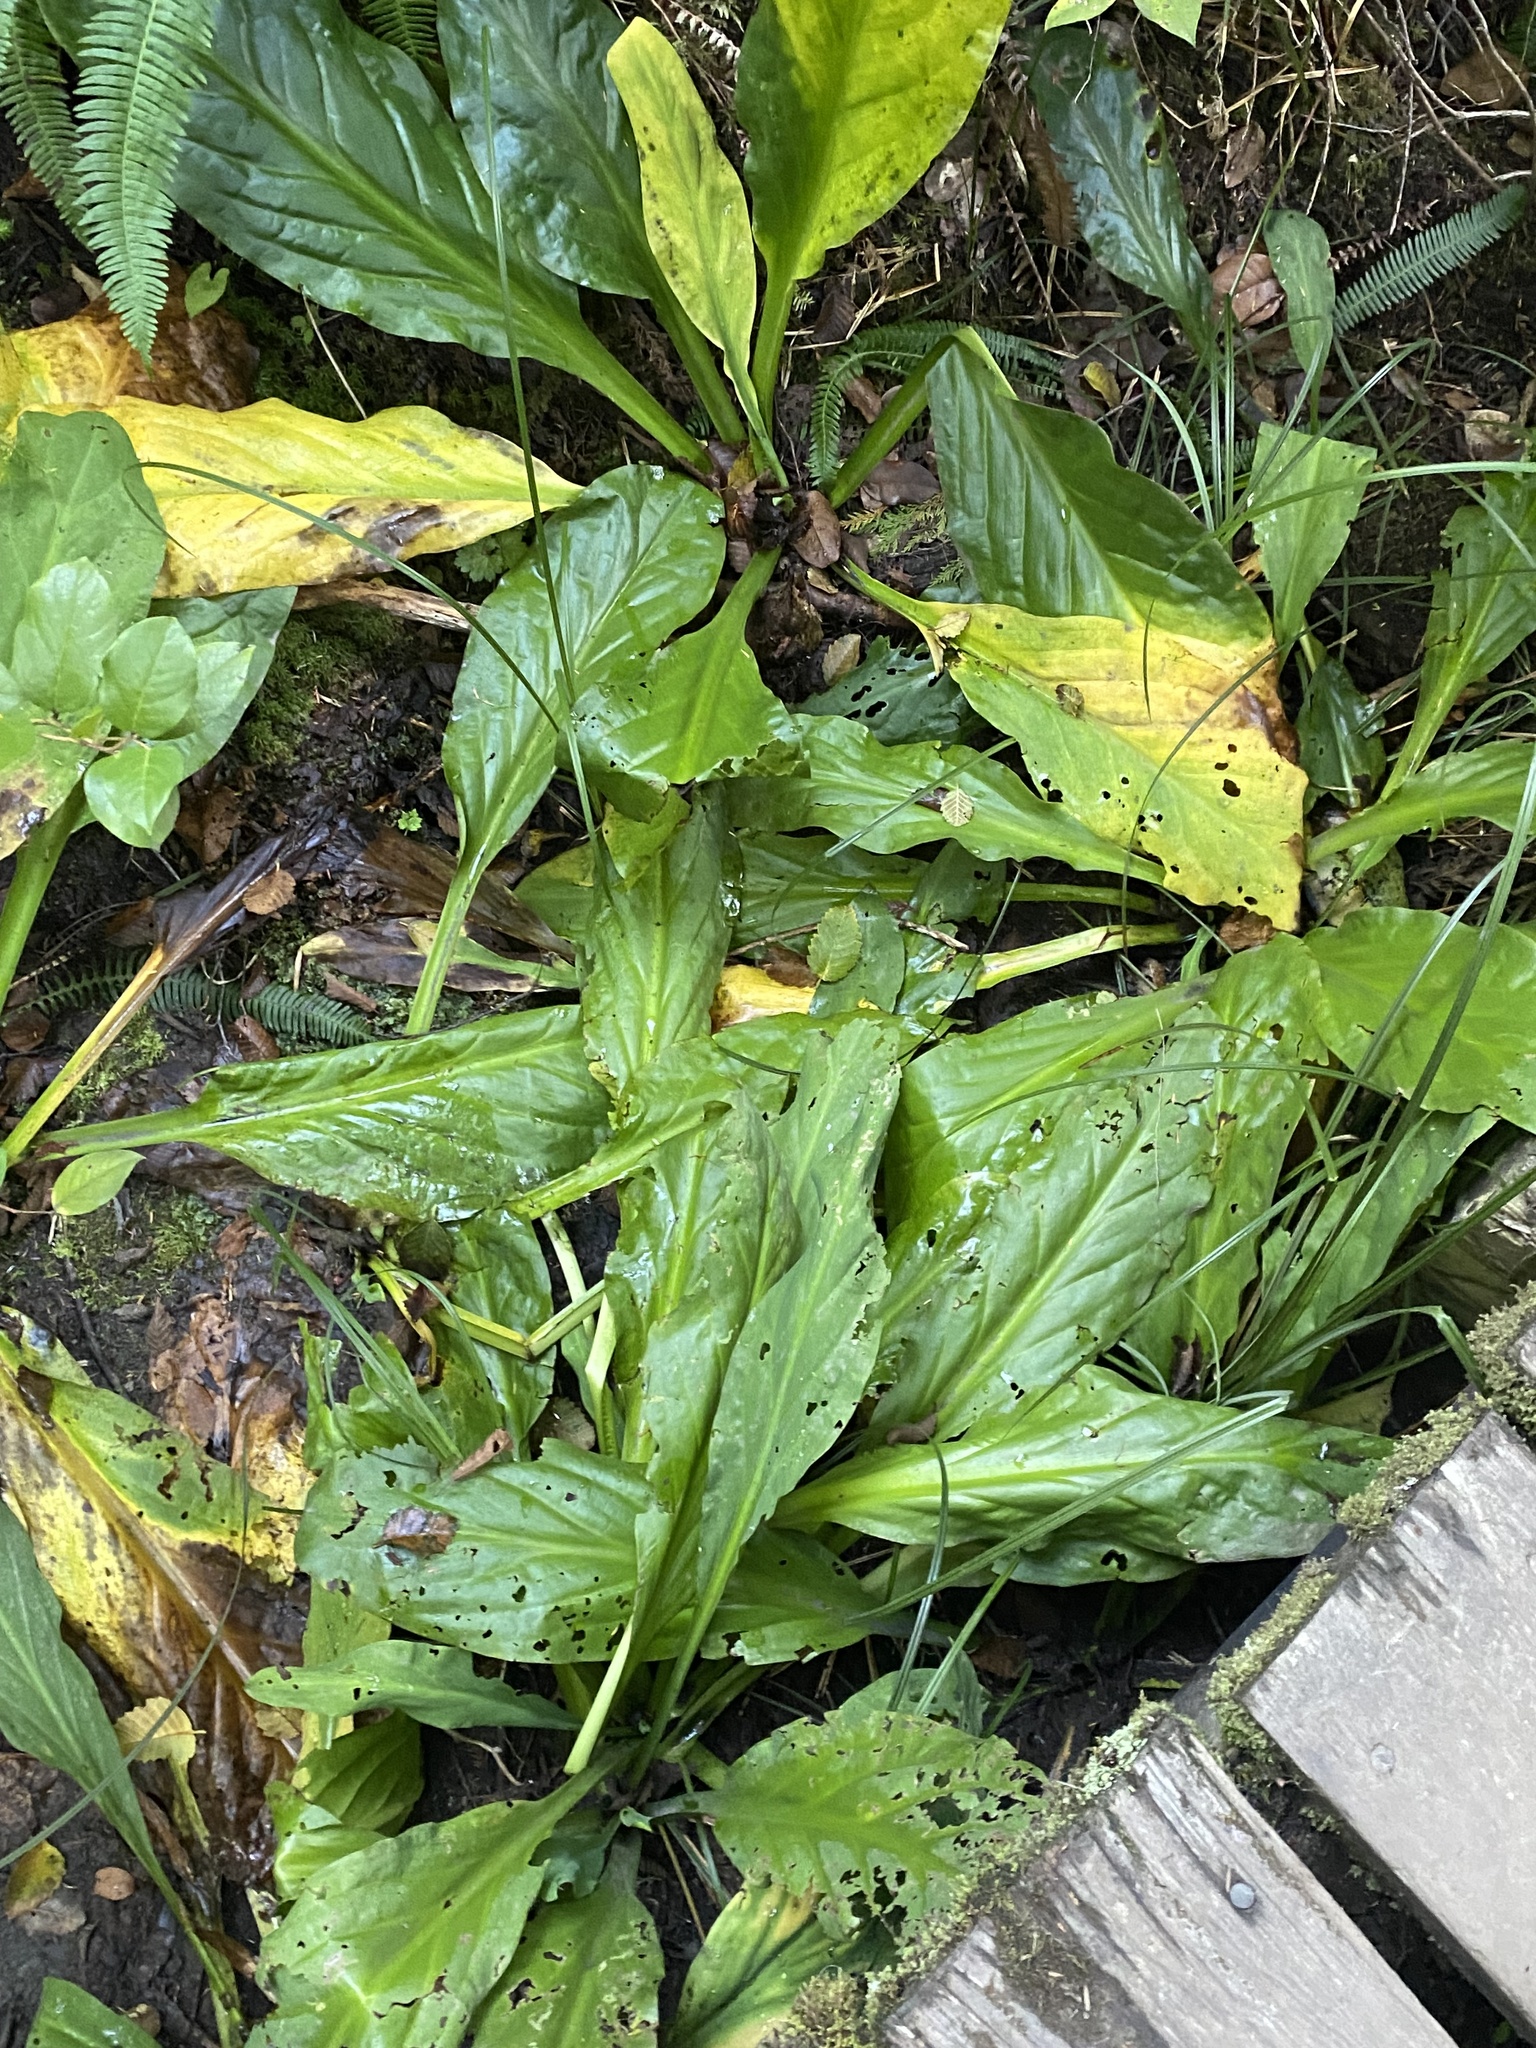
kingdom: Plantae
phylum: Tracheophyta
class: Liliopsida
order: Alismatales
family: Araceae
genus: Lysichiton
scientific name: Lysichiton americanus
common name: American skunk cabbage
